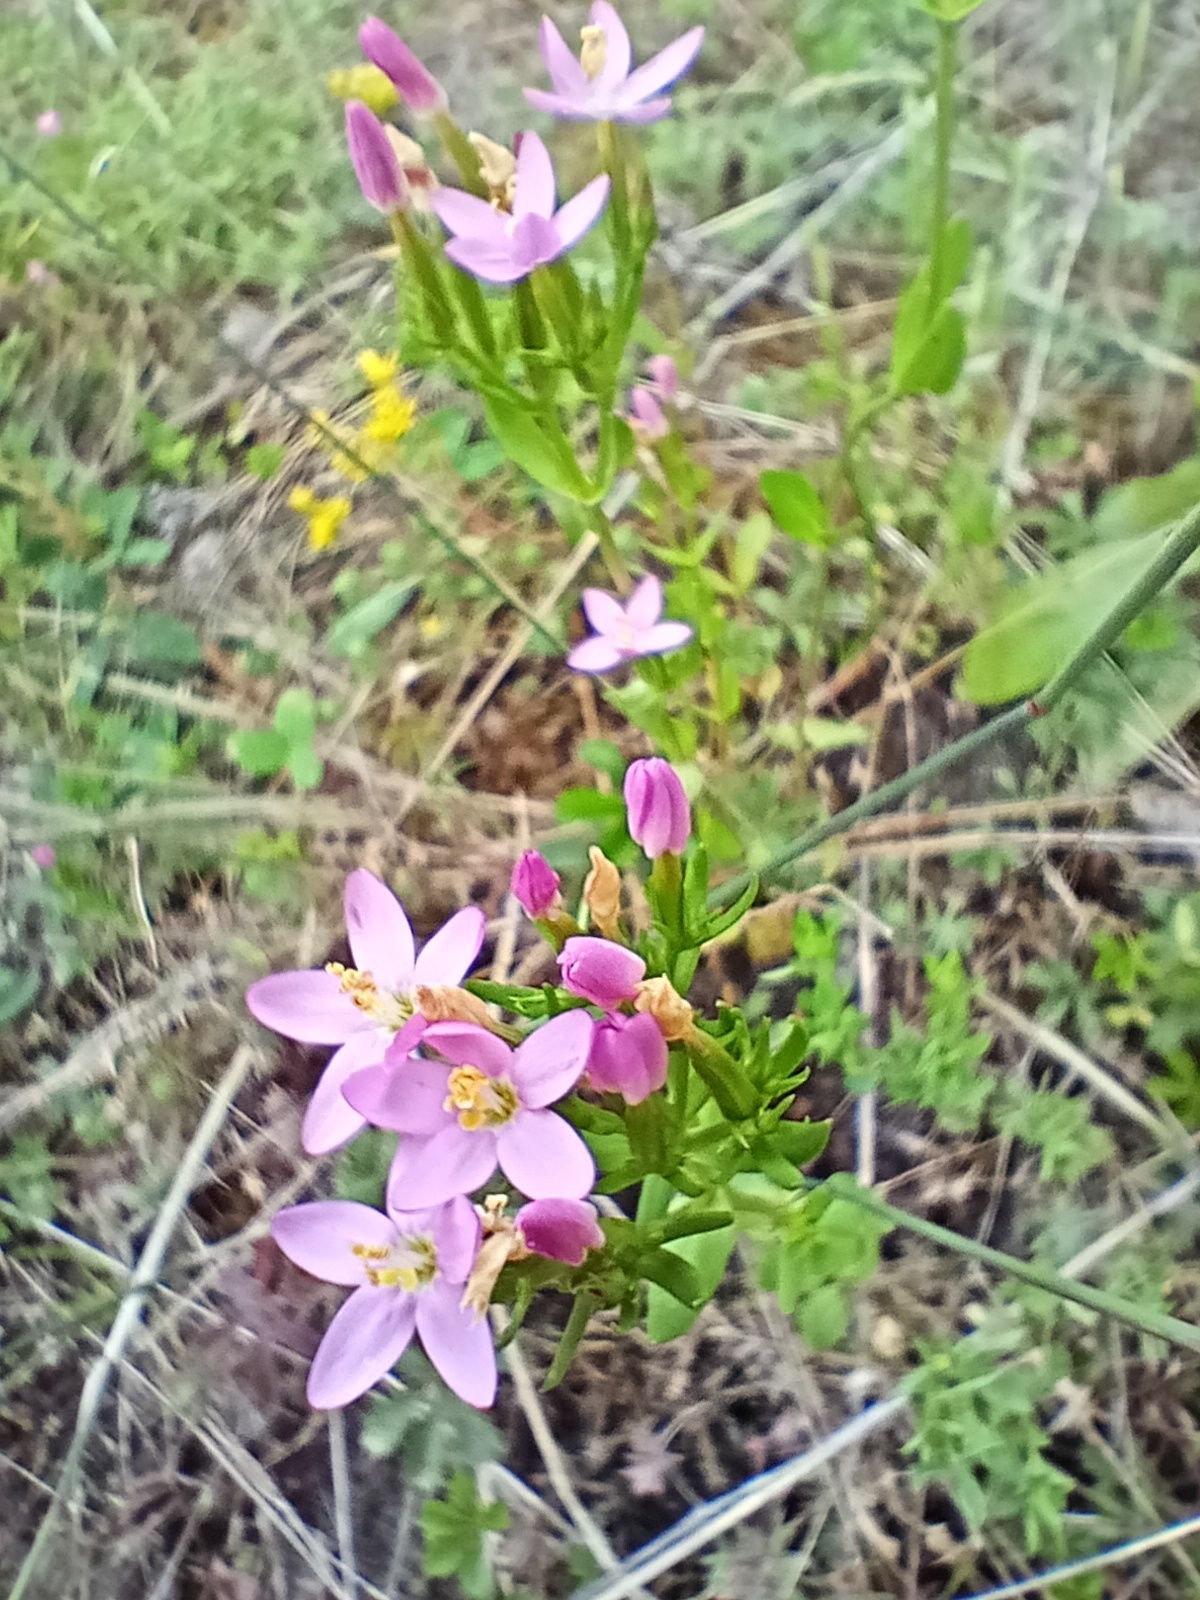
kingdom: Plantae
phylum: Tracheophyta
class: Magnoliopsida
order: Gentianales
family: Gentianaceae
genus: Centaurium
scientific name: Centaurium erythraea
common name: Common centaury
